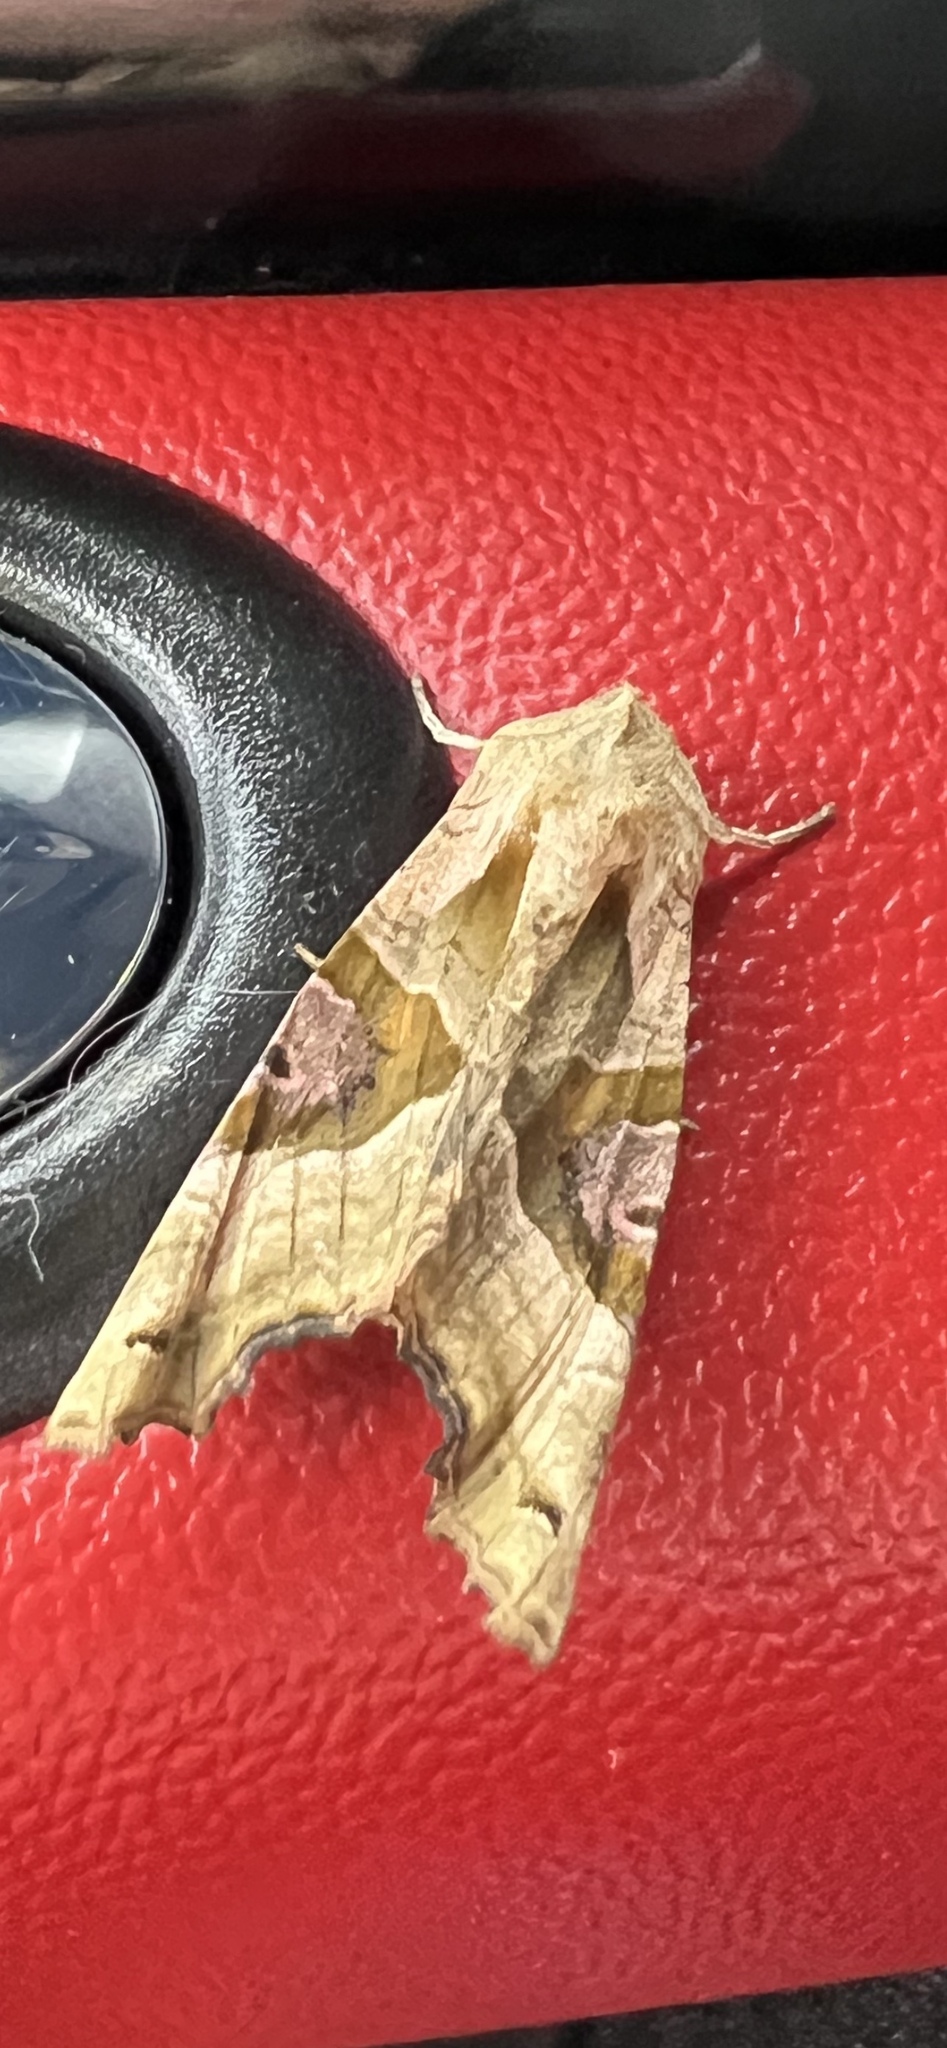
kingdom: Animalia
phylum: Arthropoda
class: Insecta
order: Lepidoptera
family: Noctuidae
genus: Phlogophora
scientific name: Phlogophora meticulosa
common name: Angle shades
